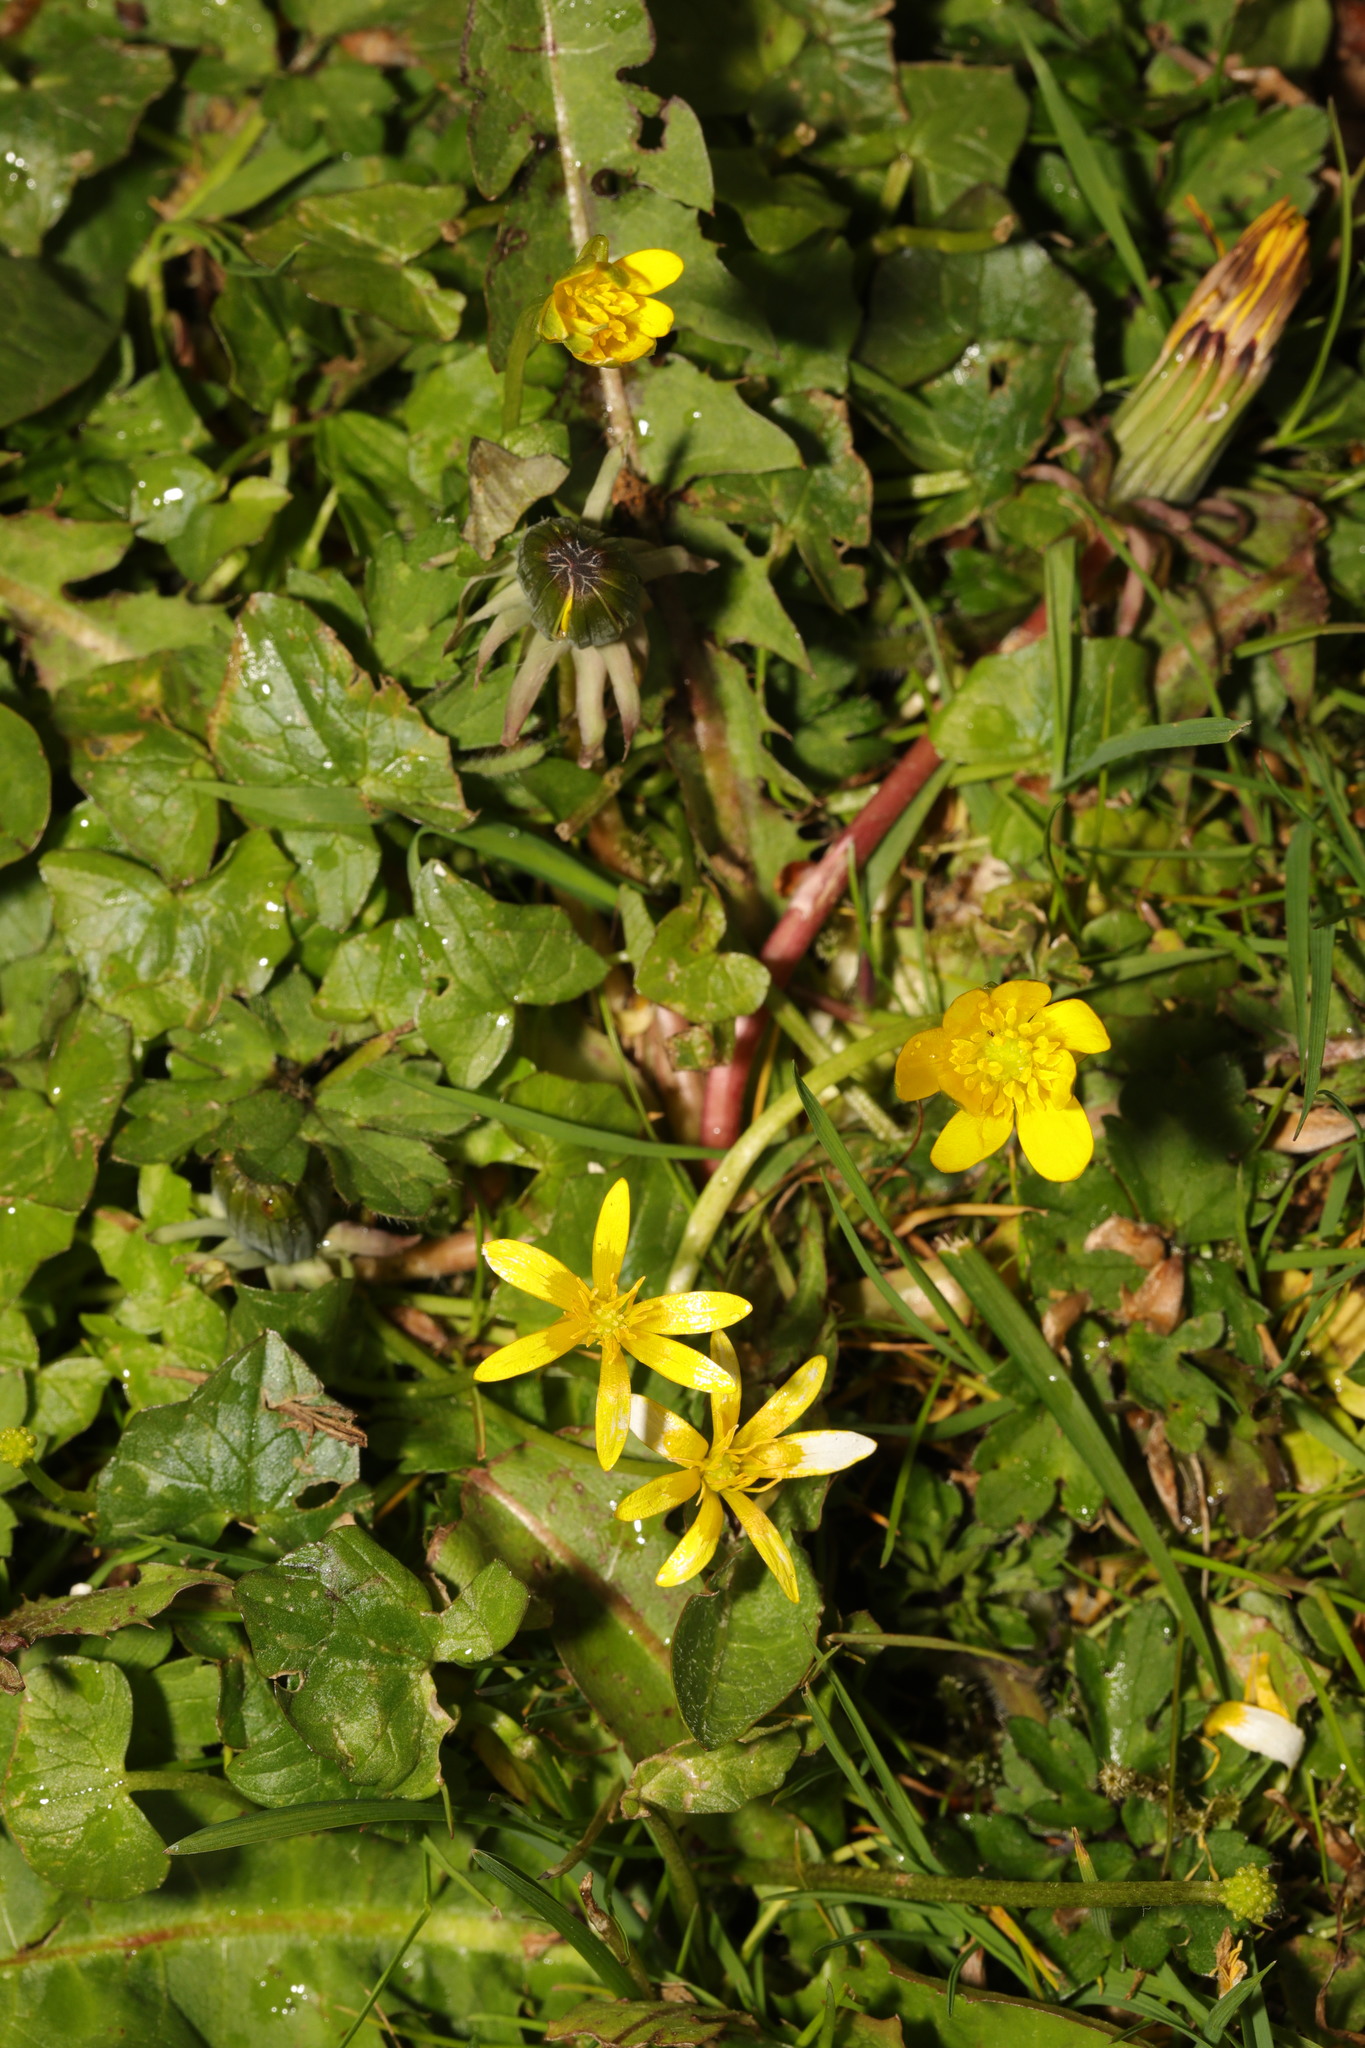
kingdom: Plantae
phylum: Tracheophyta
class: Magnoliopsida
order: Ranunculales
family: Ranunculaceae
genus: Ficaria
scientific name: Ficaria verna
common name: Lesser celandine
